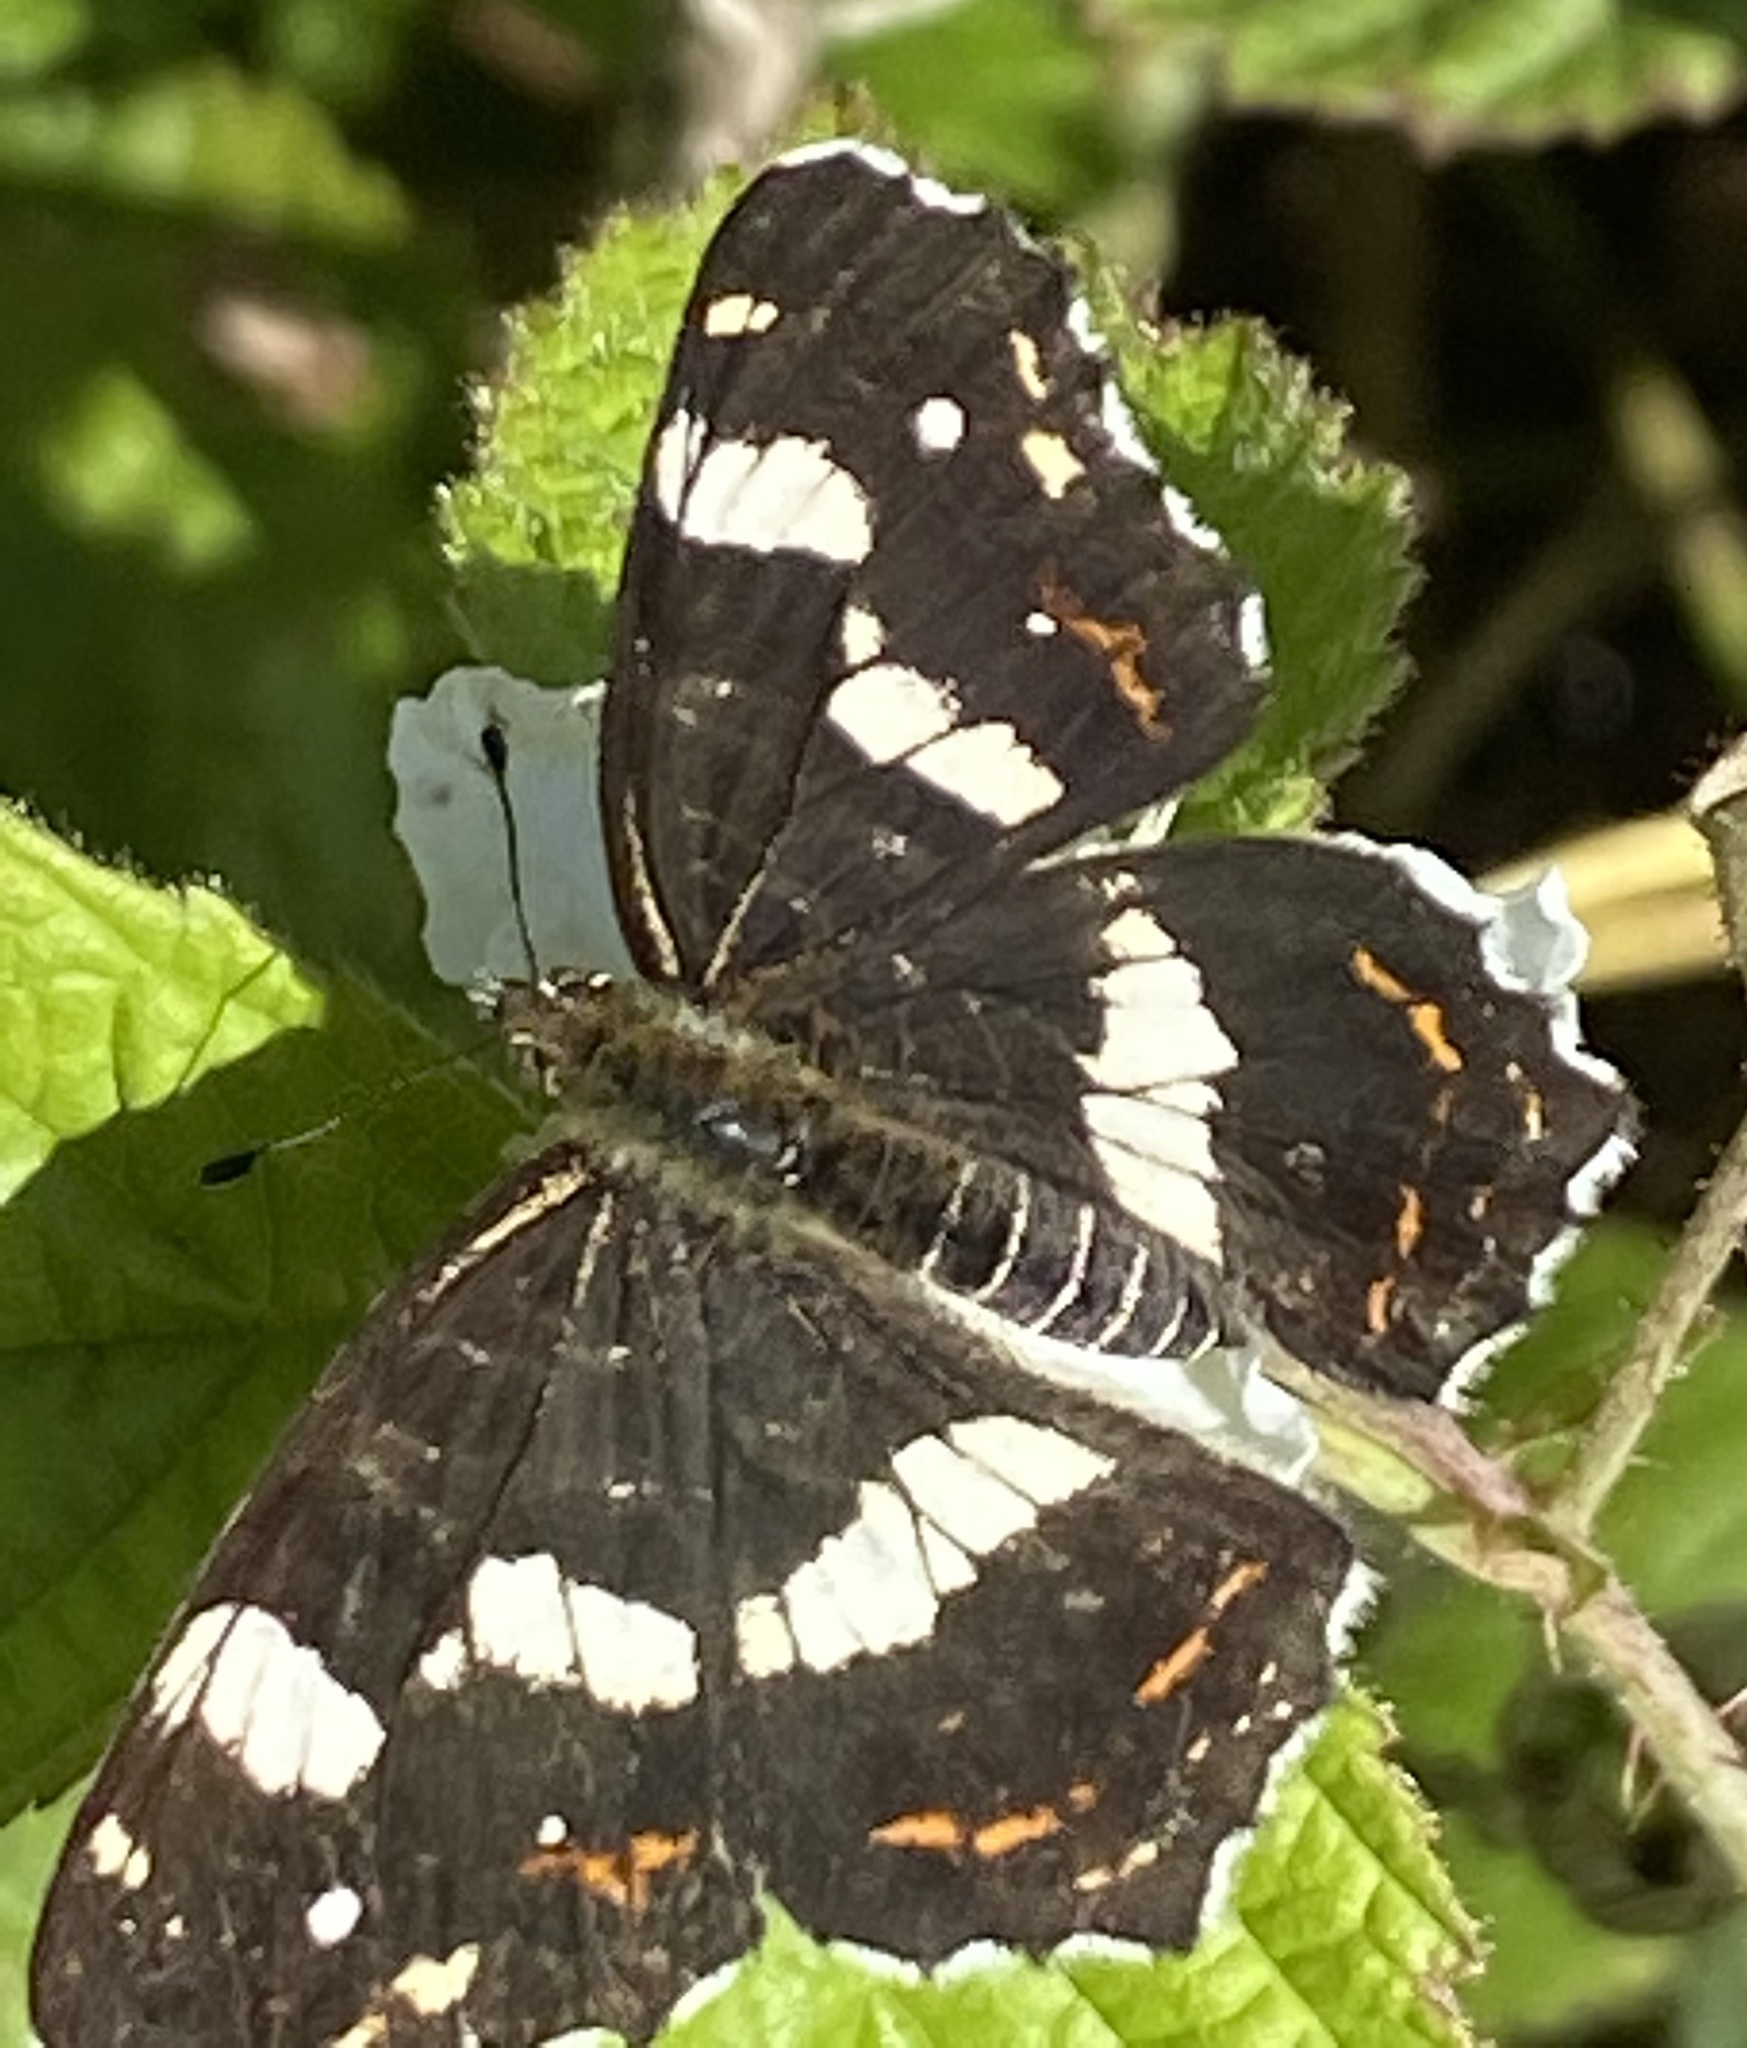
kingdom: Animalia
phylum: Arthropoda
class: Insecta
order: Lepidoptera
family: Nymphalidae
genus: Araschnia
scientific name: Araschnia levana
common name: Map butterfly
